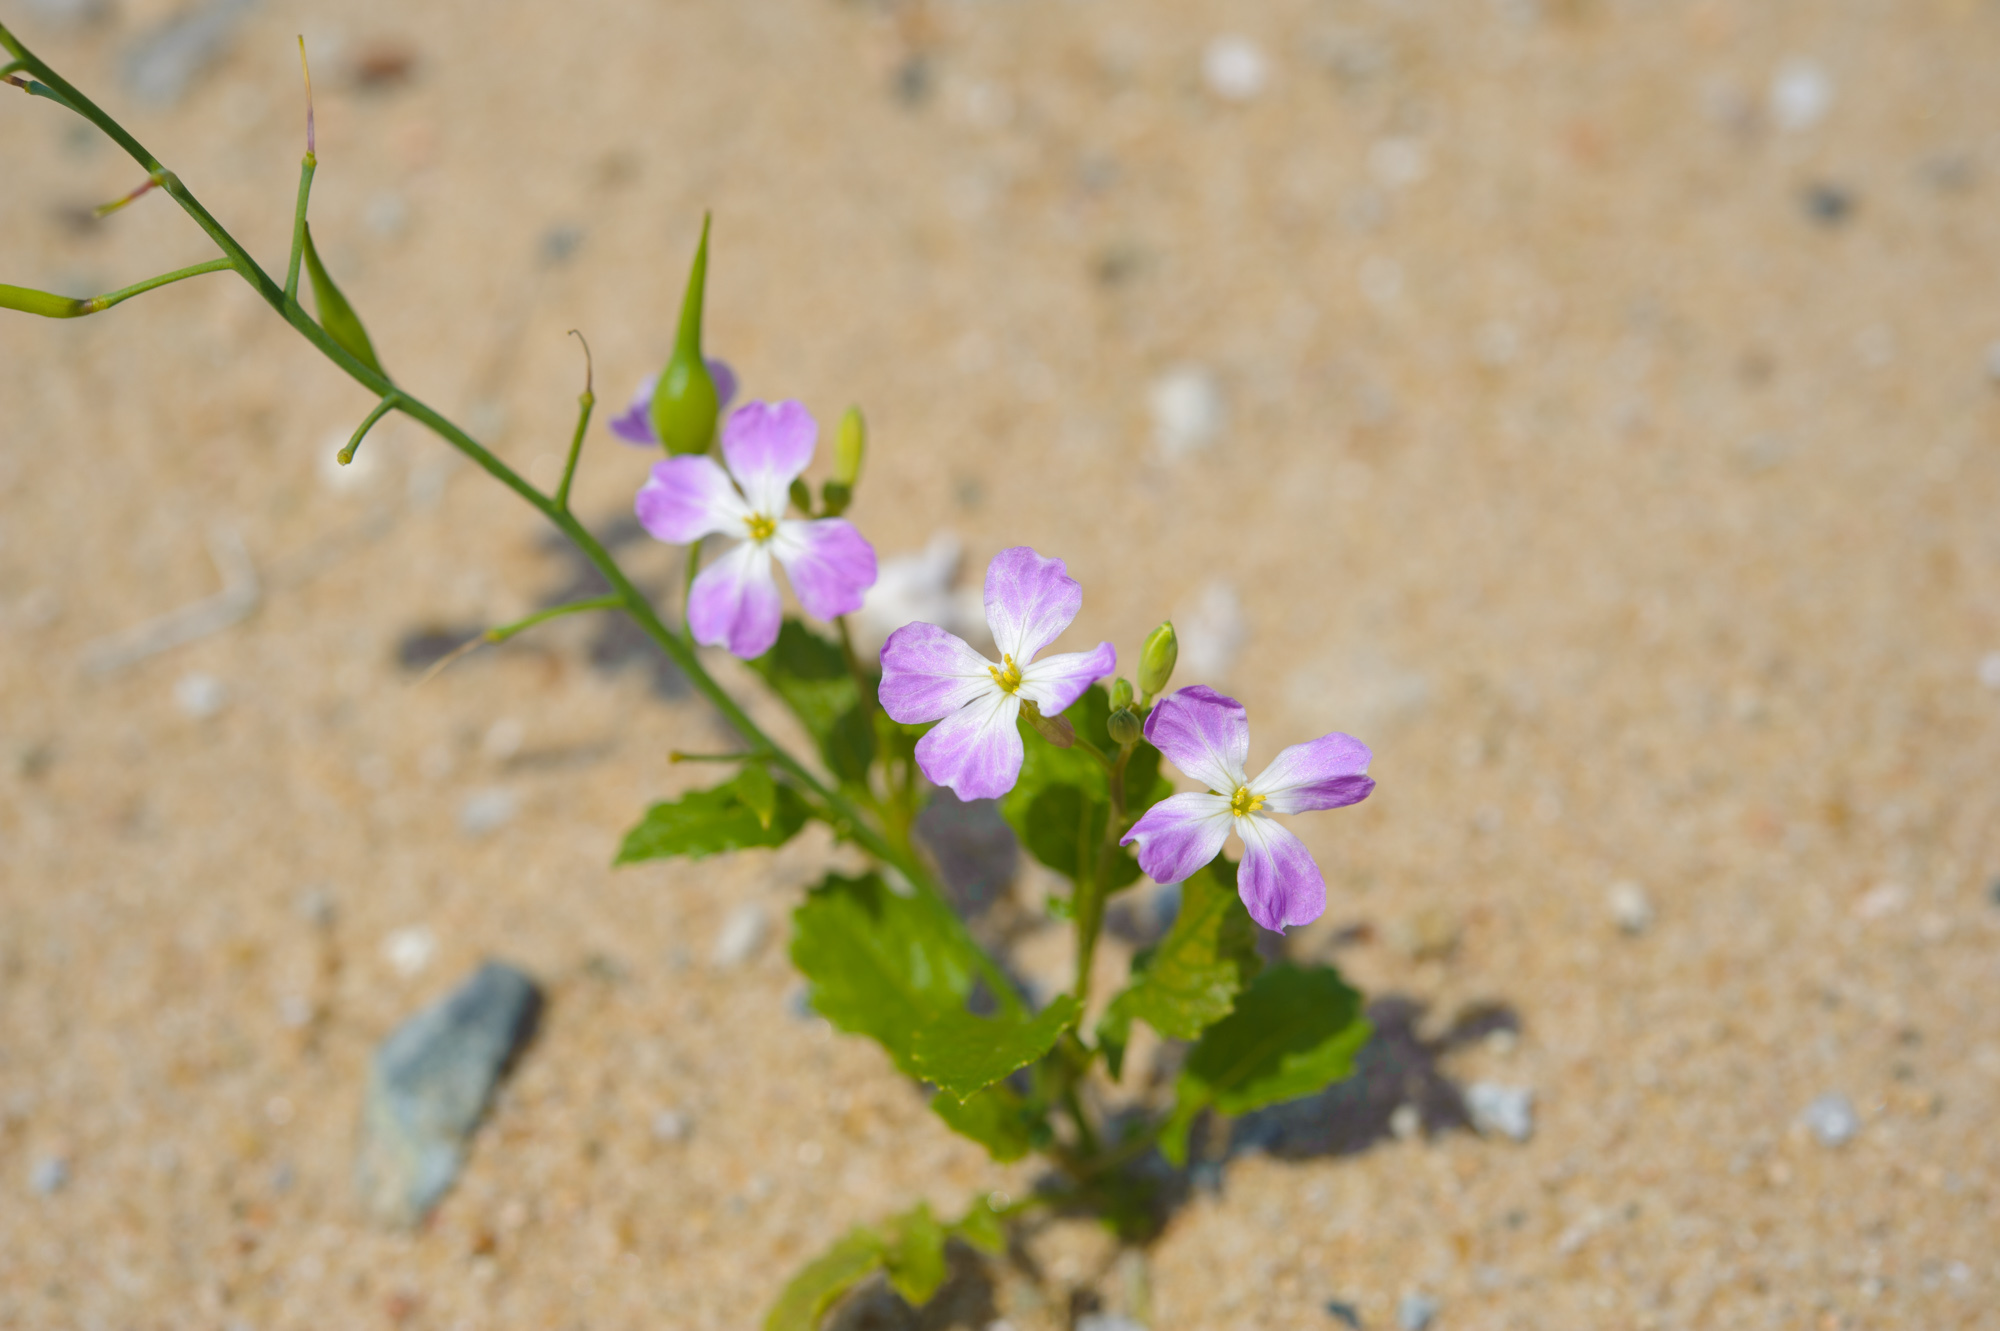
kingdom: Plantae
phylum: Tracheophyta
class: Magnoliopsida
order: Brassicales
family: Brassicaceae
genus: Raphanus
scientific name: Raphanus sativus
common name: Cultivated radish
